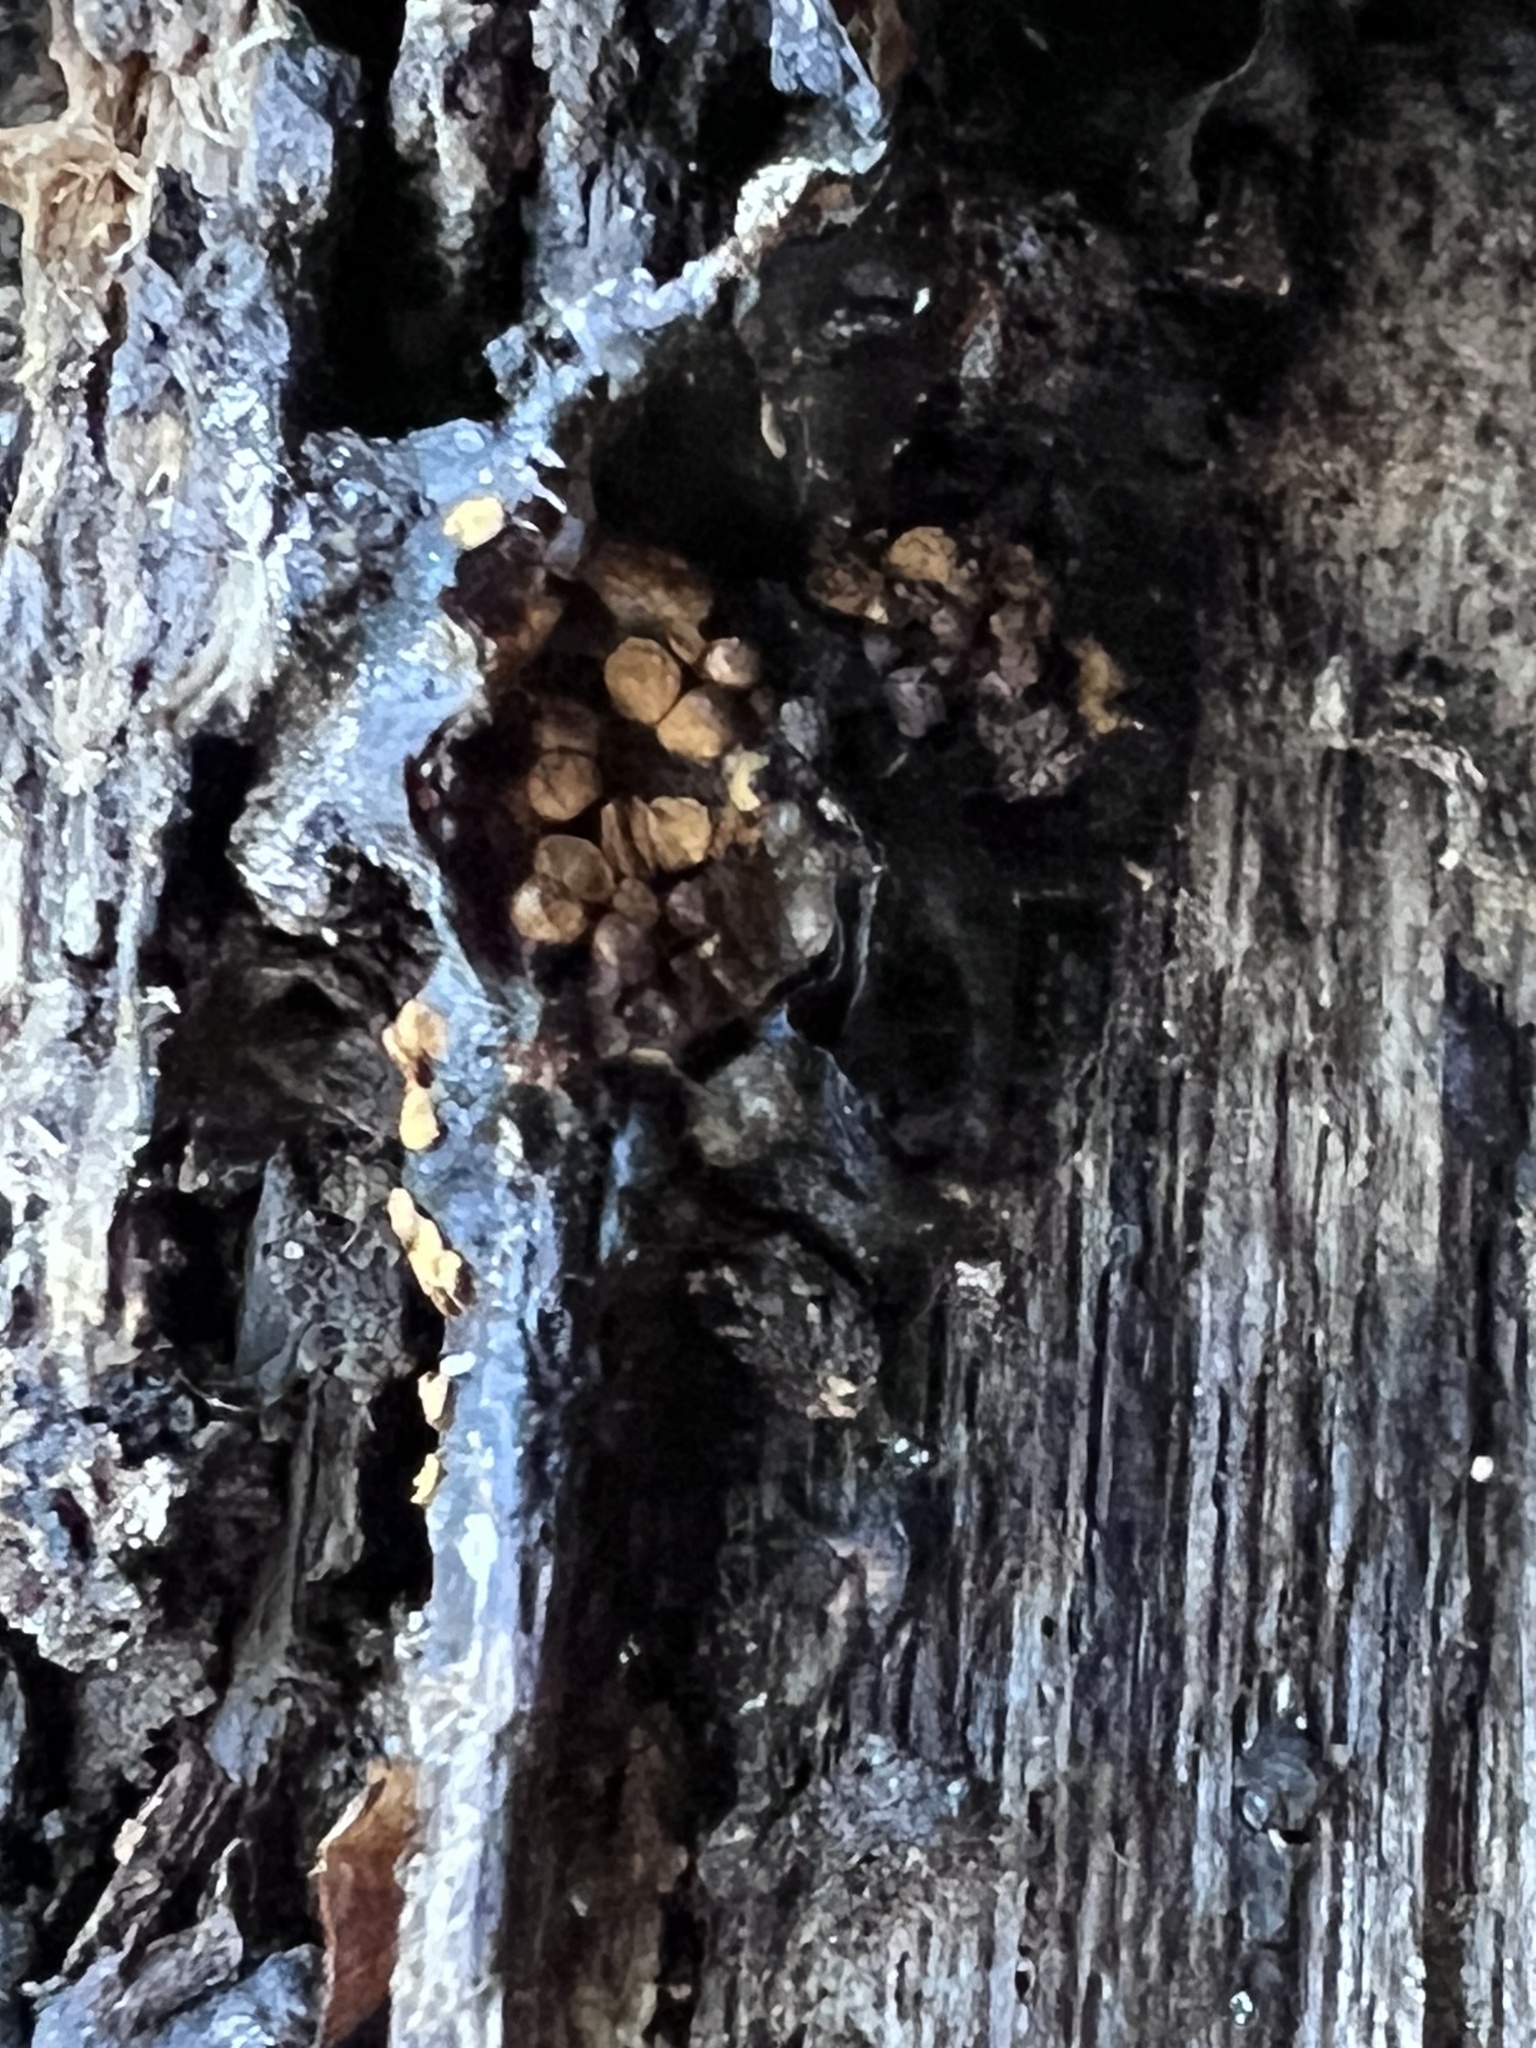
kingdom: Protozoa
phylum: Mycetozoa
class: Myxomycetes
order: Trichiales
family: Trichiaceae
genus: Perichaena
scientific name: Perichaena depressa
